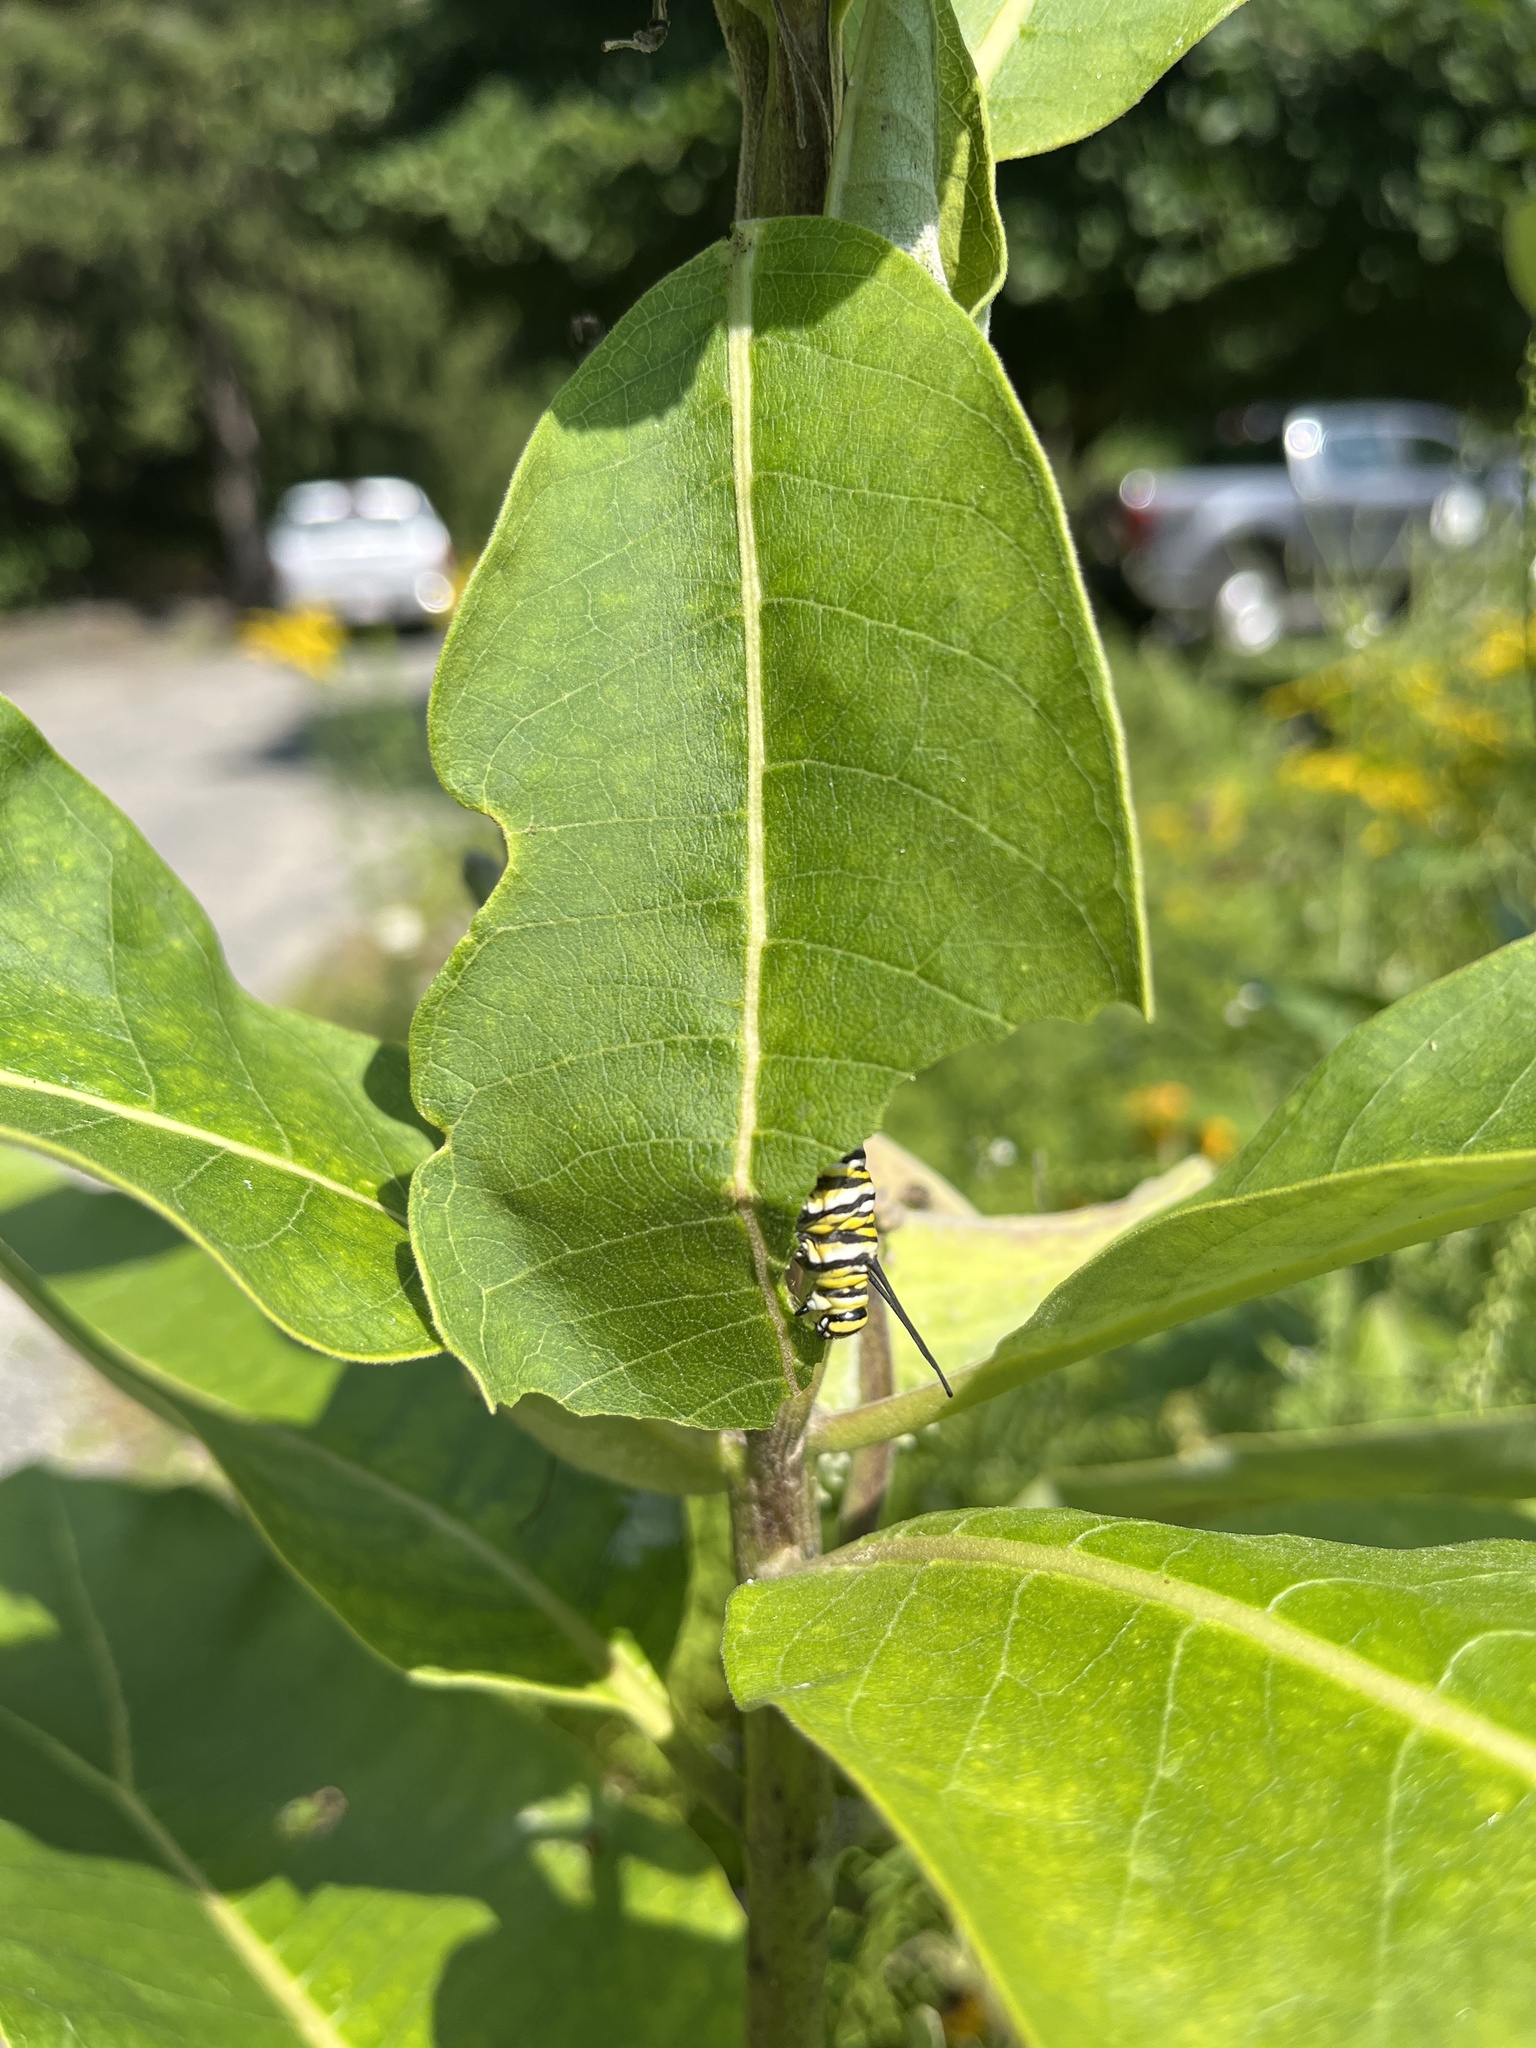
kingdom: Animalia
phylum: Arthropoda
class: Insecta
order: Lepidoptera
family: Nymphalidae
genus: Danaus
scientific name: Danaus plexippus
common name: Monarch
